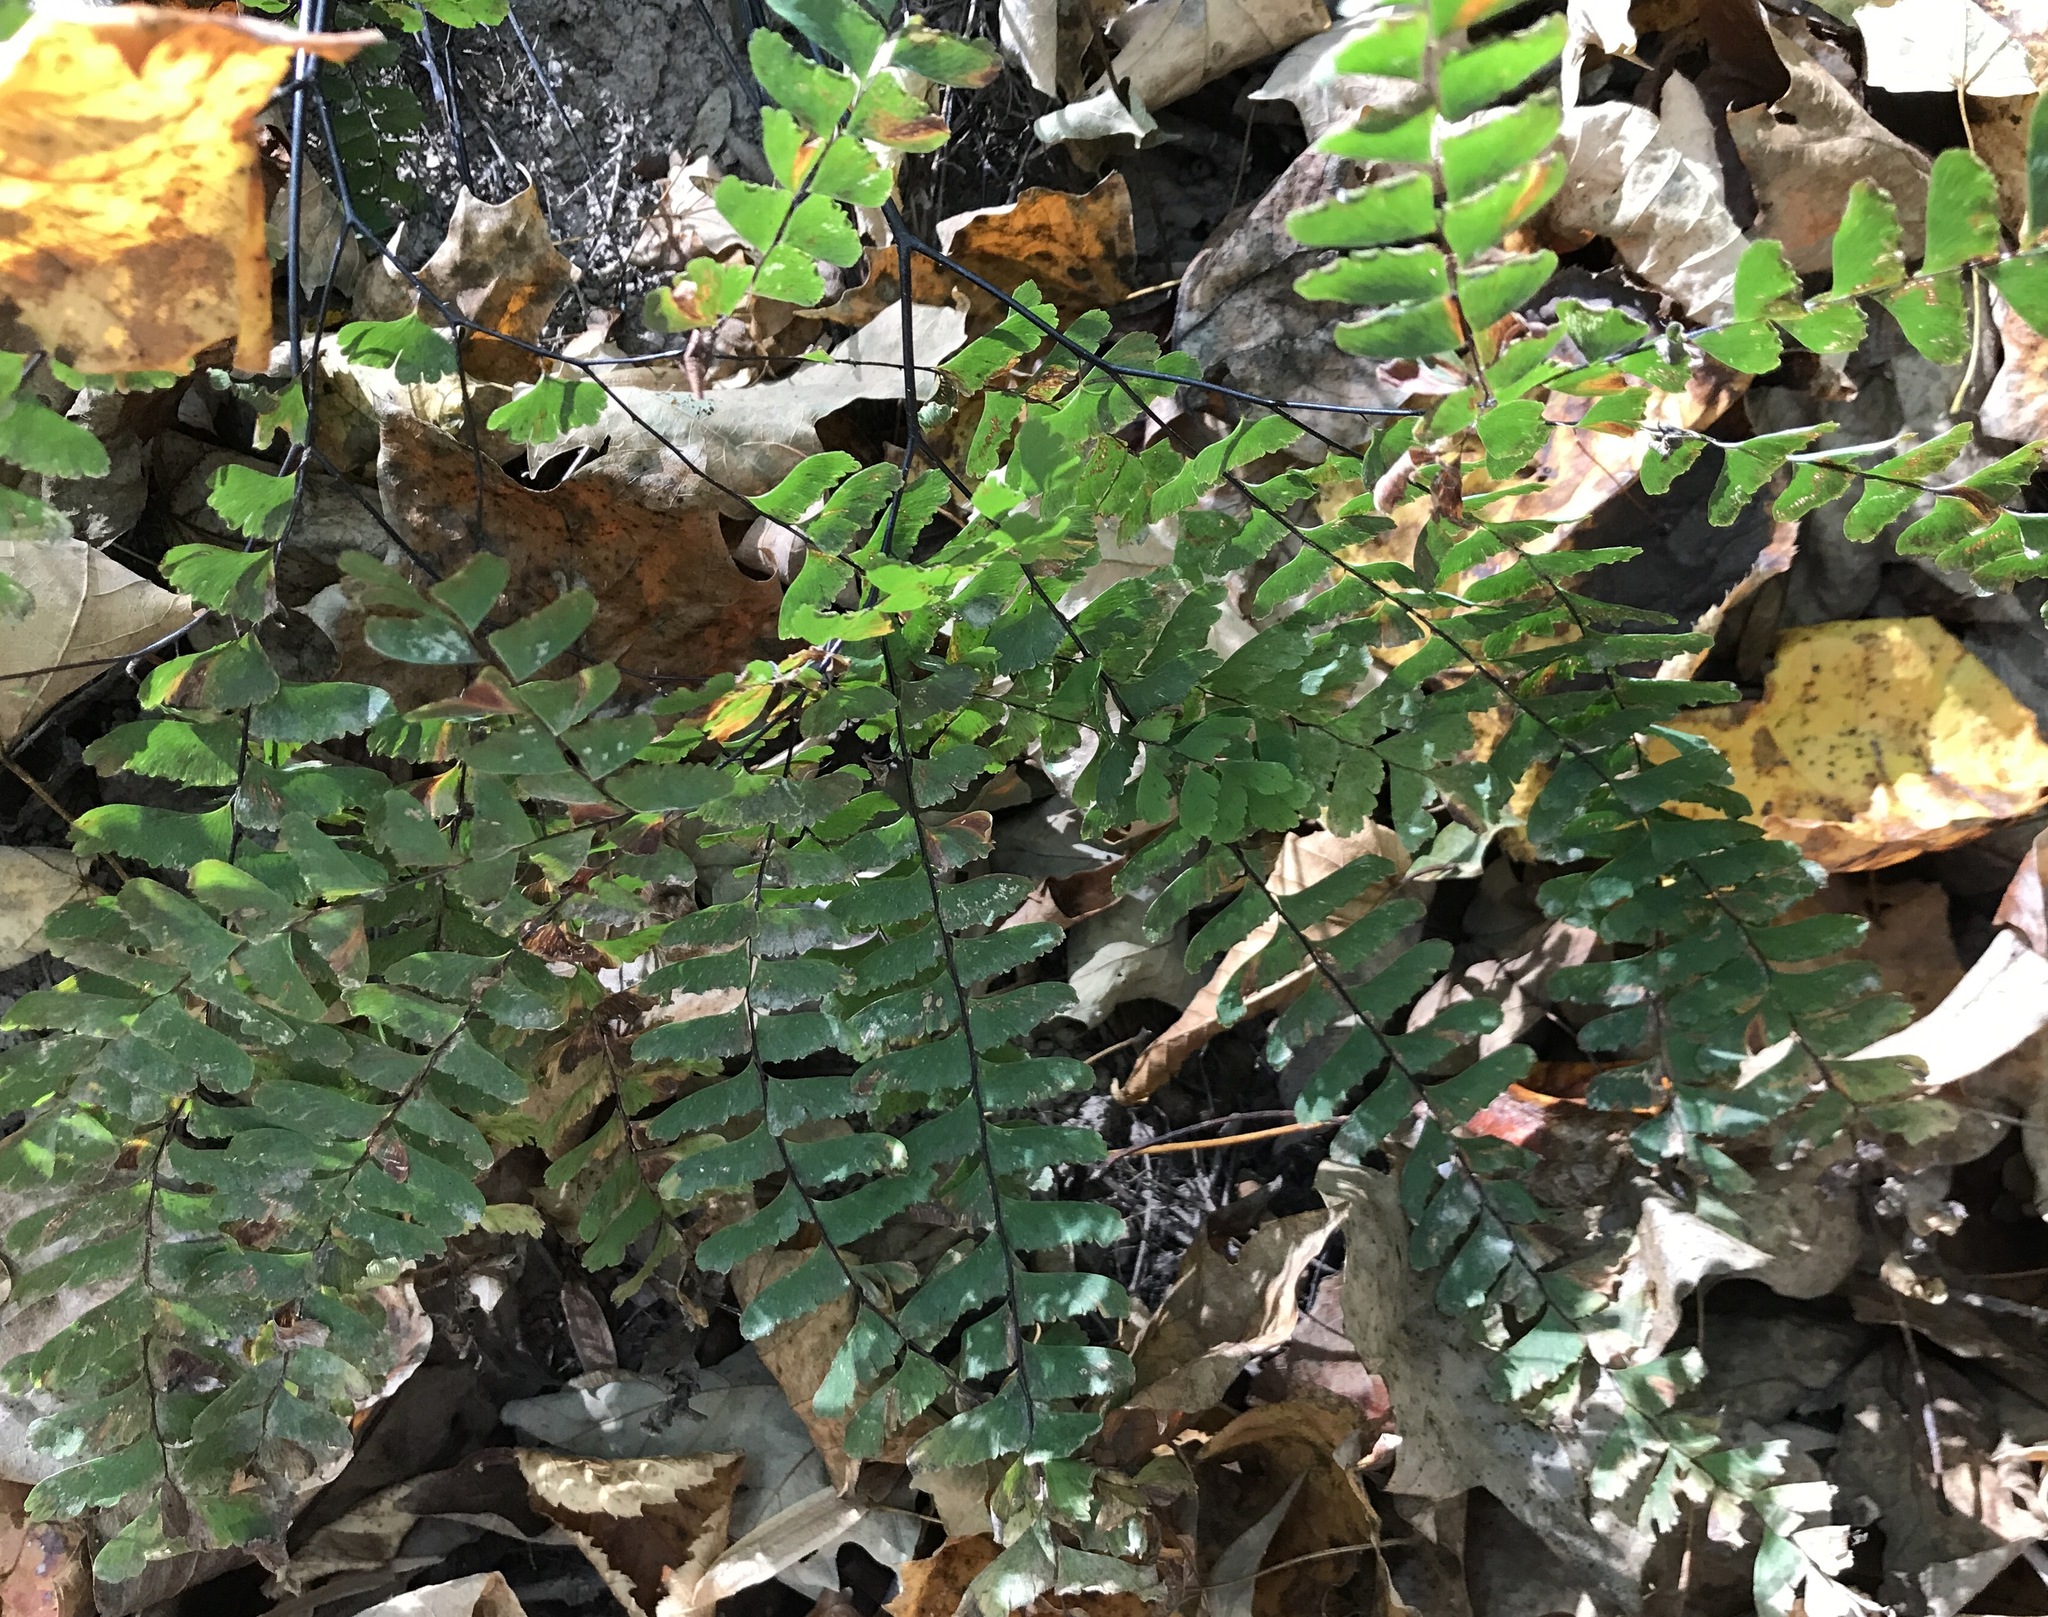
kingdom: Plantae
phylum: Tracheophyta
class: Polypodiopsida
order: Polypodiales
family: Pteridaceae
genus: Adiantum
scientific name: Adiantum pedatum
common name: Five-finger fern
